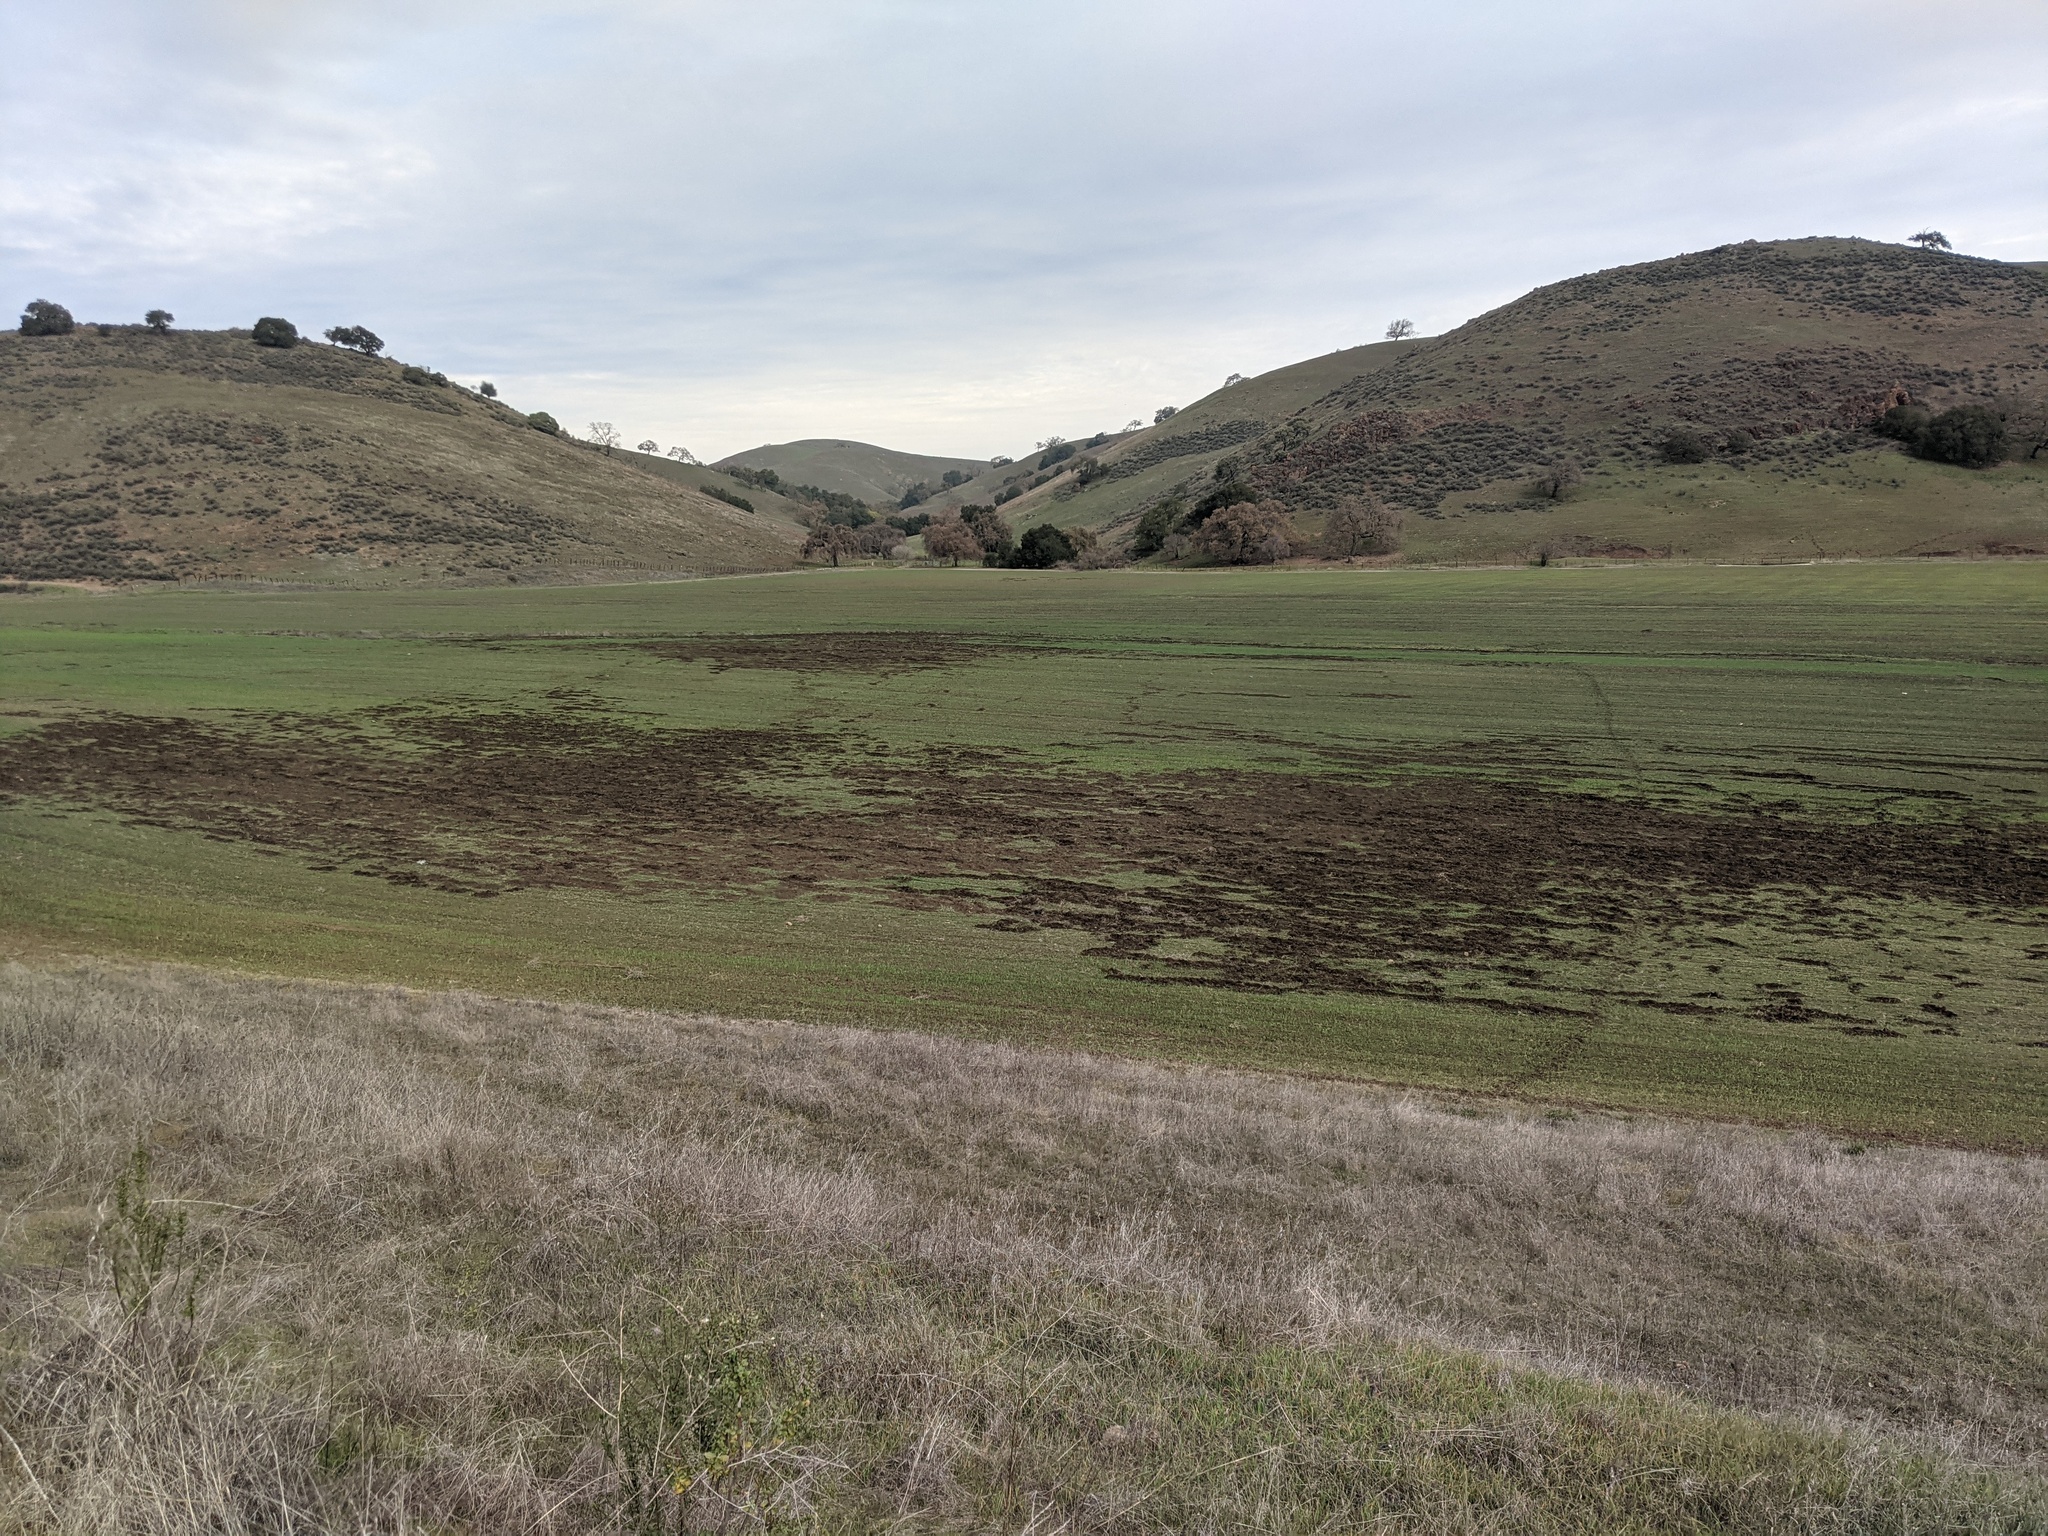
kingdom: Animalia
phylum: Chordata
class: Mammalia
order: Artiodactyla
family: Suidae
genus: Sus
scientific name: Sus scrofa
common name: Wild boar
